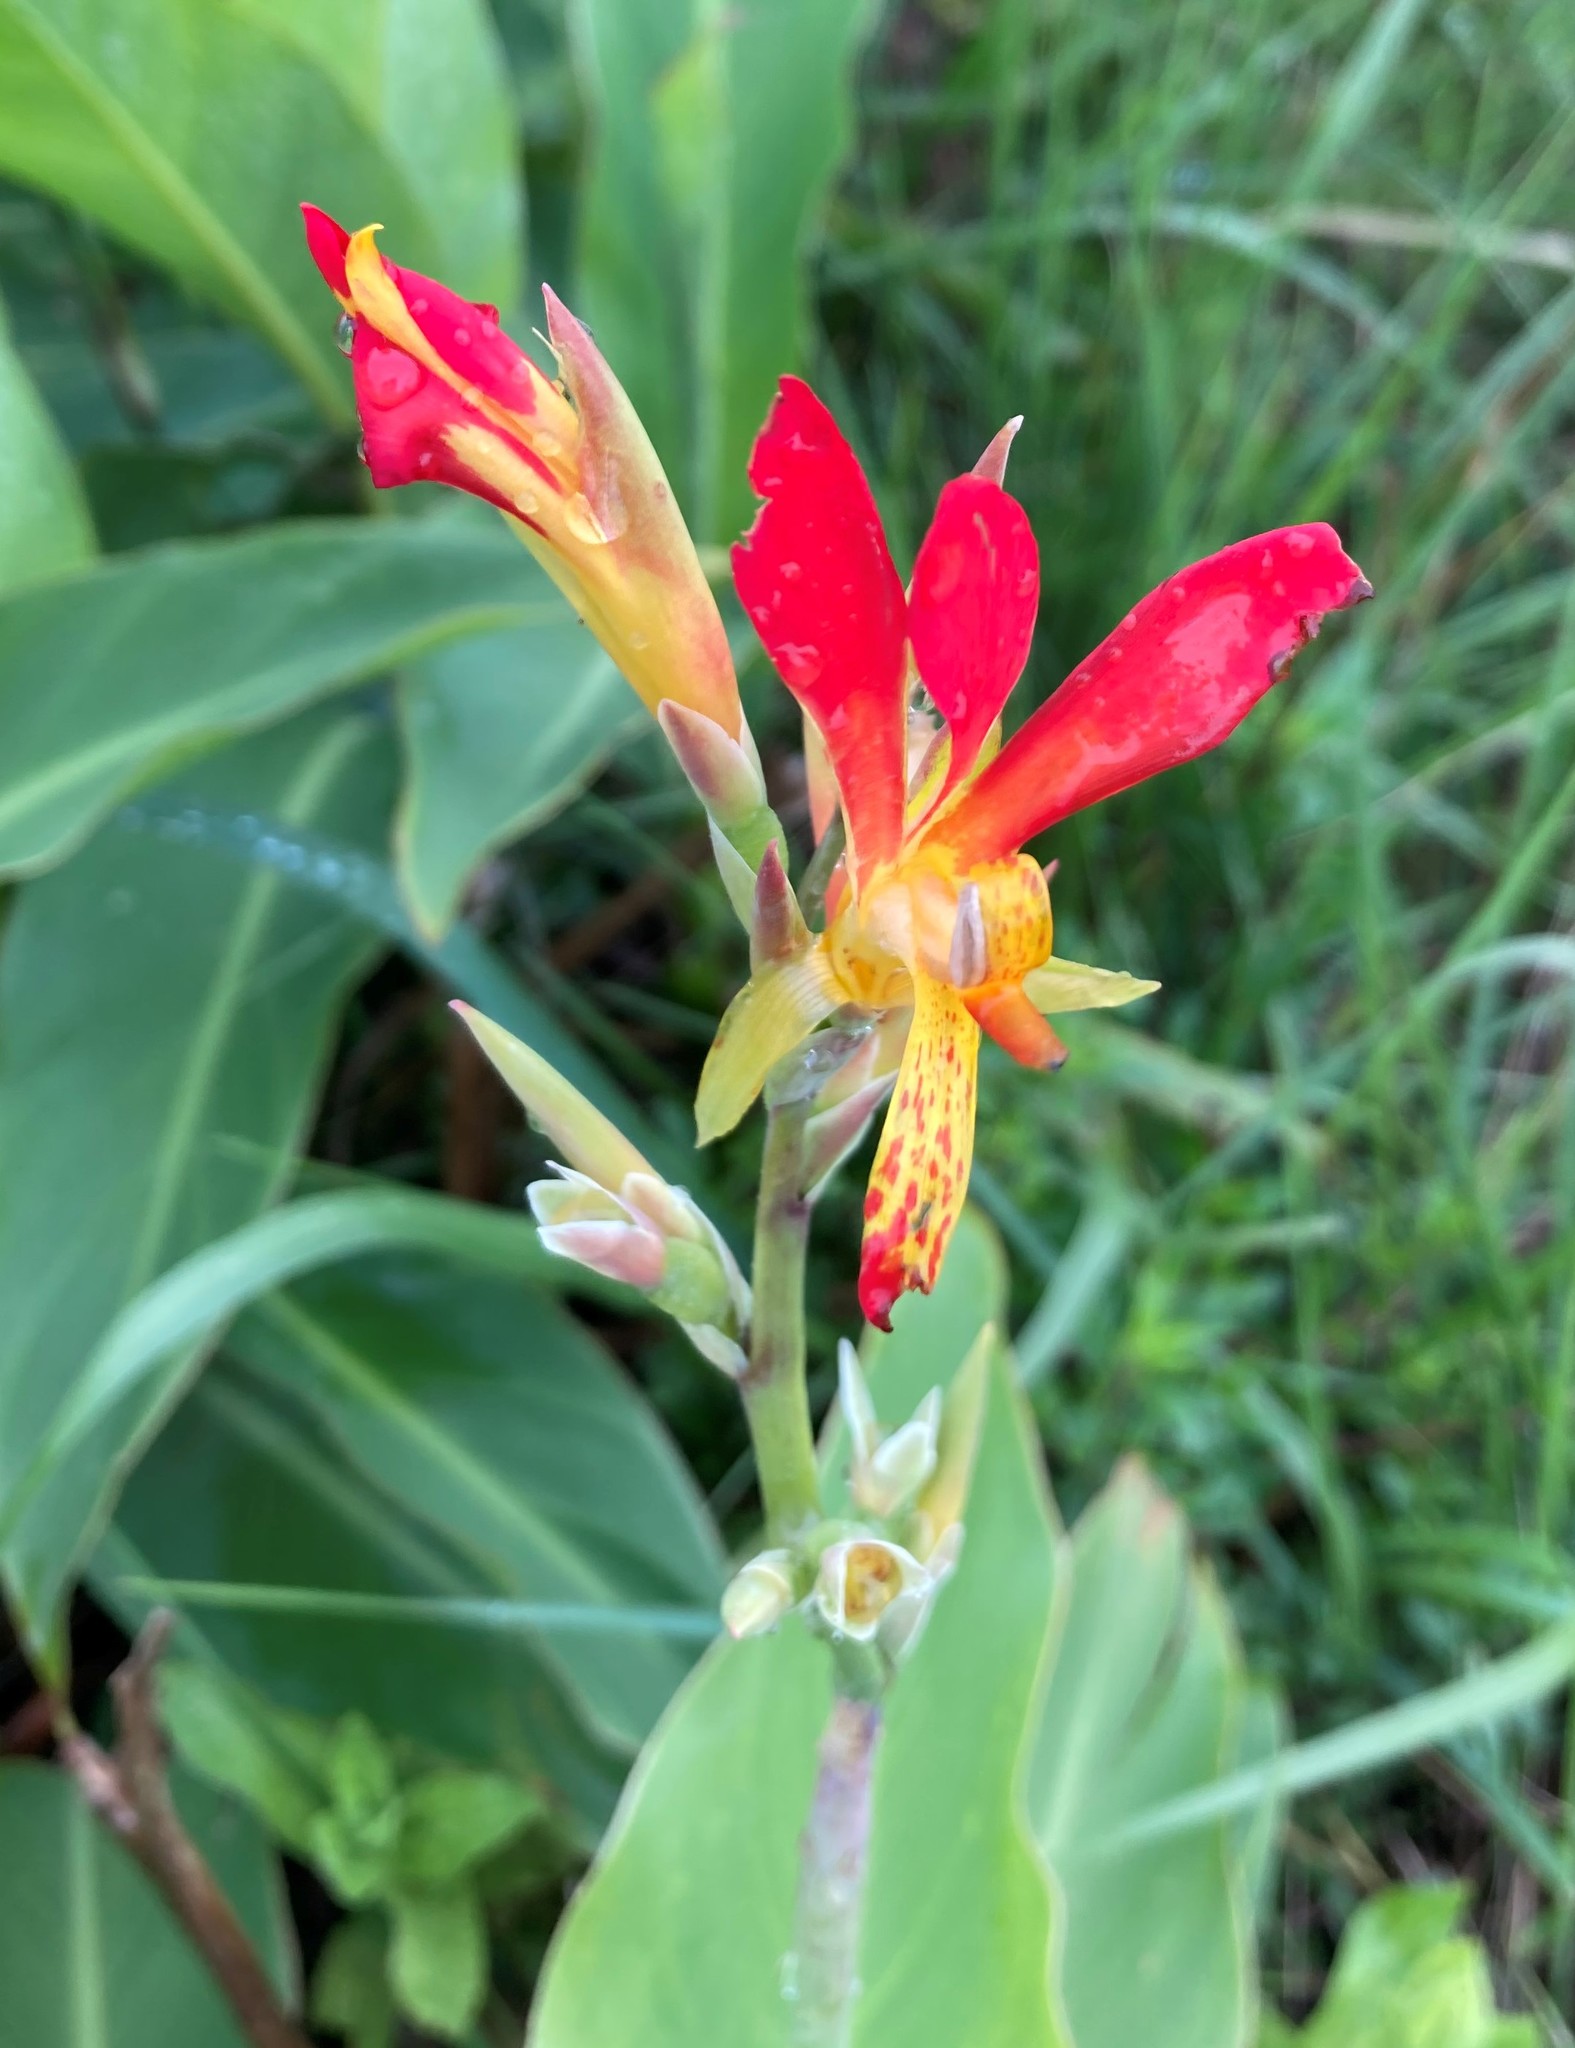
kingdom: Plantae
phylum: Tracheophyta
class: Liliopsida
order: Zingiberales
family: Cannaceae
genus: Canna
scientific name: Canna indica
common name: Indian shot
